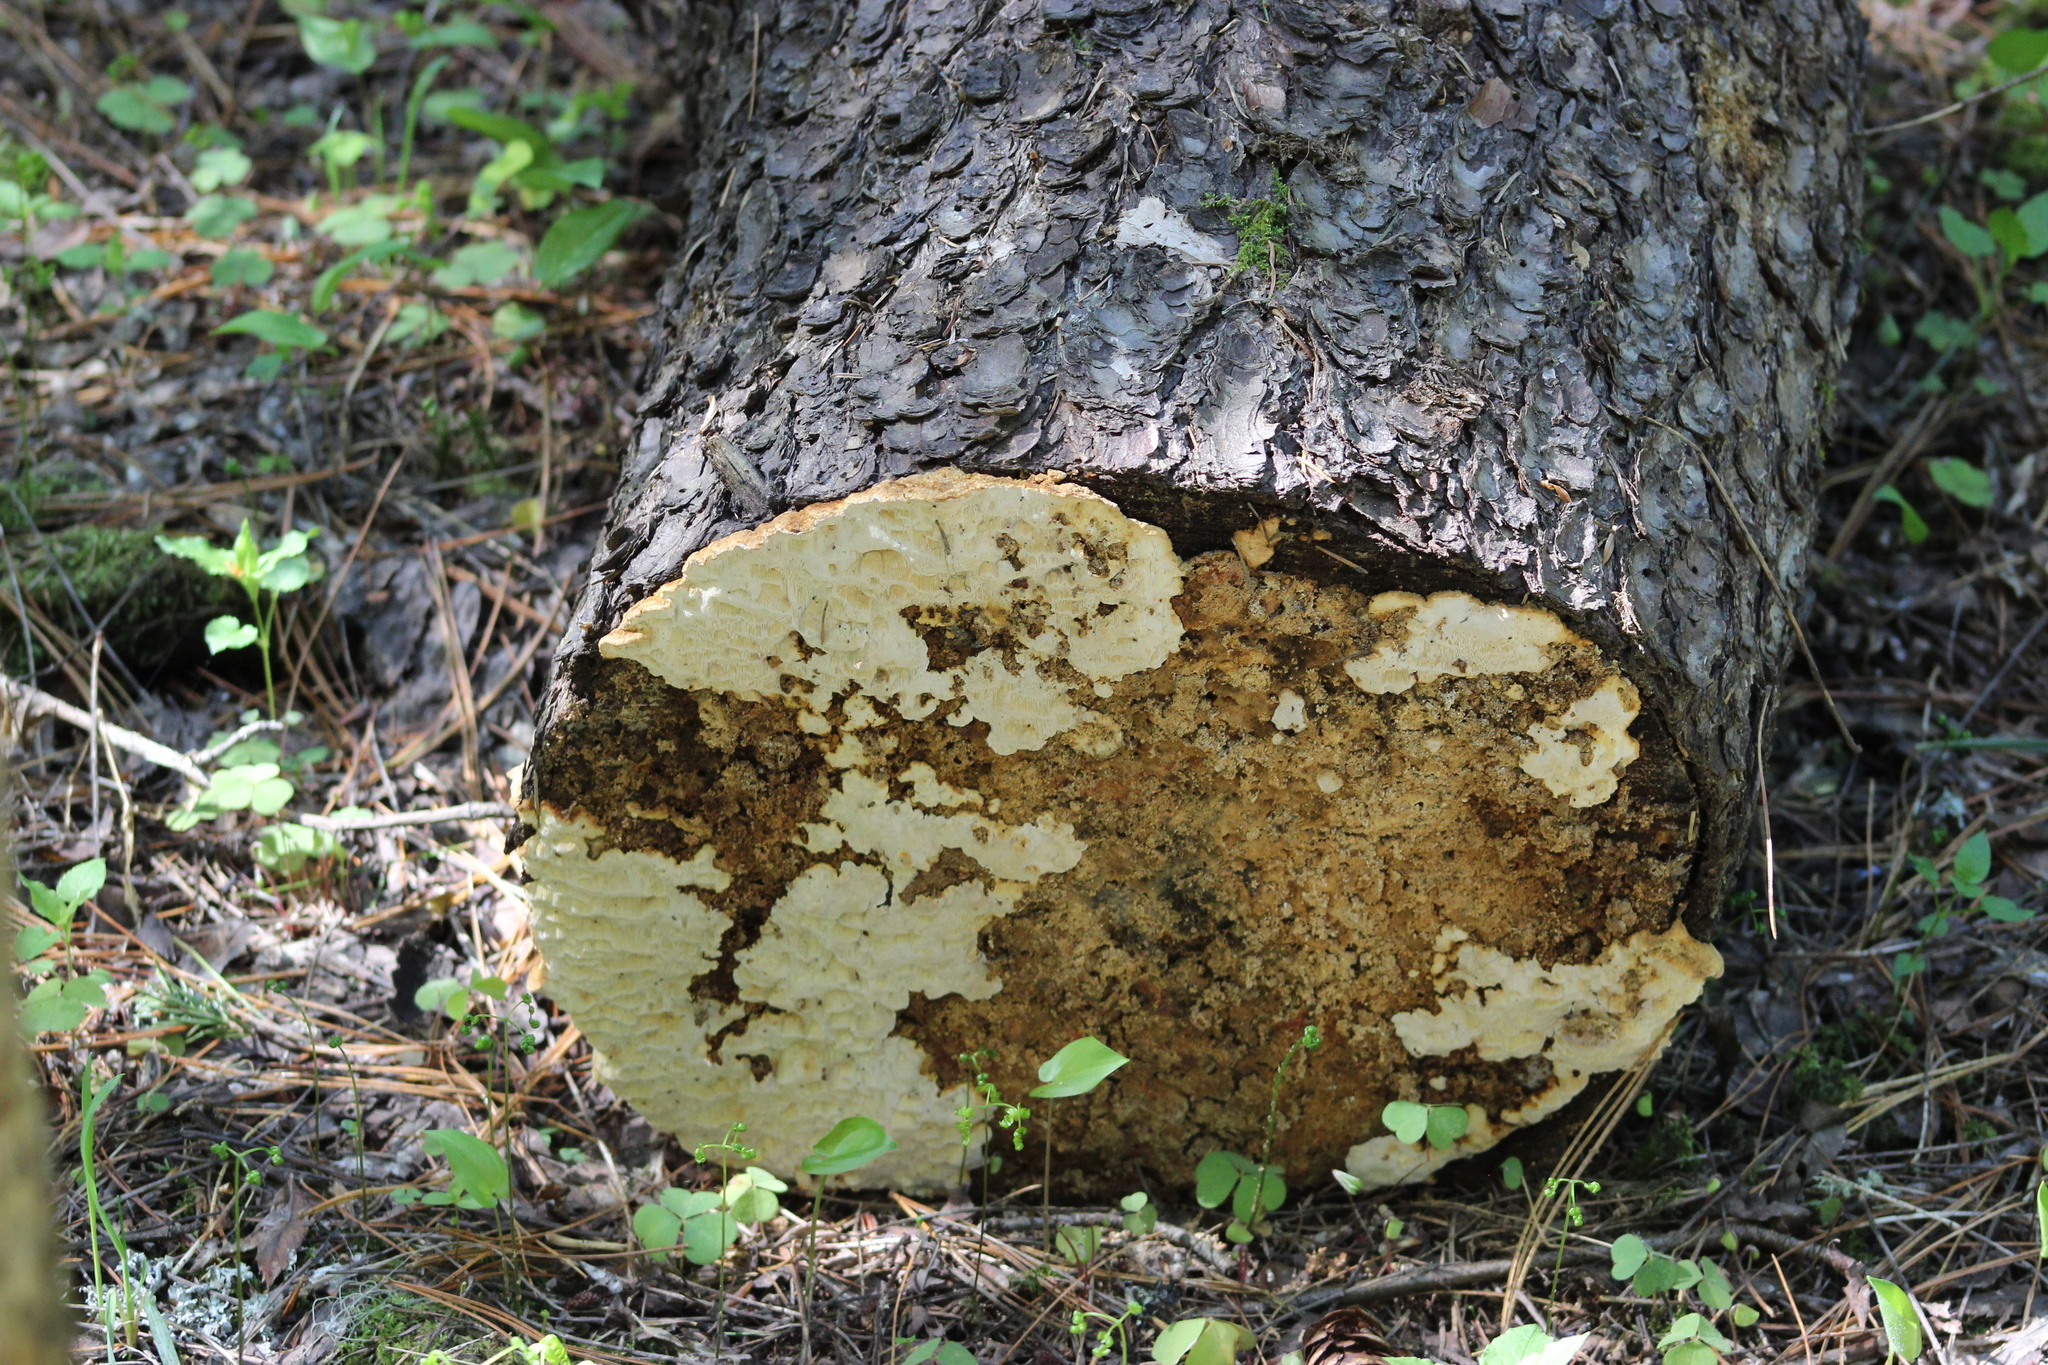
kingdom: Fungi
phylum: Basidiomycota
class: Agaricomycetes
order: Polyporales
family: Fomitopsidaceae
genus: Neoantrodia
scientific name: Neoantrodia serialis
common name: Serried porecrust
